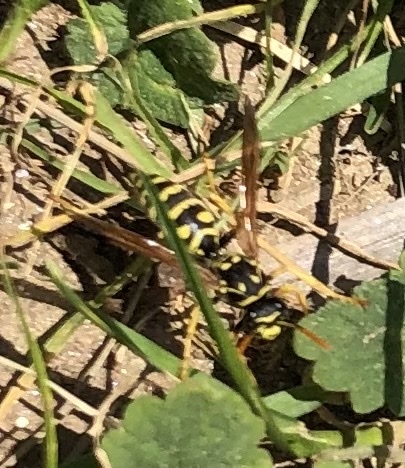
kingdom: Animalia
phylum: Arthropoda
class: Insecta
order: Hymenoptera
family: Eumenidae
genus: Polistes
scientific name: Polistes dominula
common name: Paper wasp
